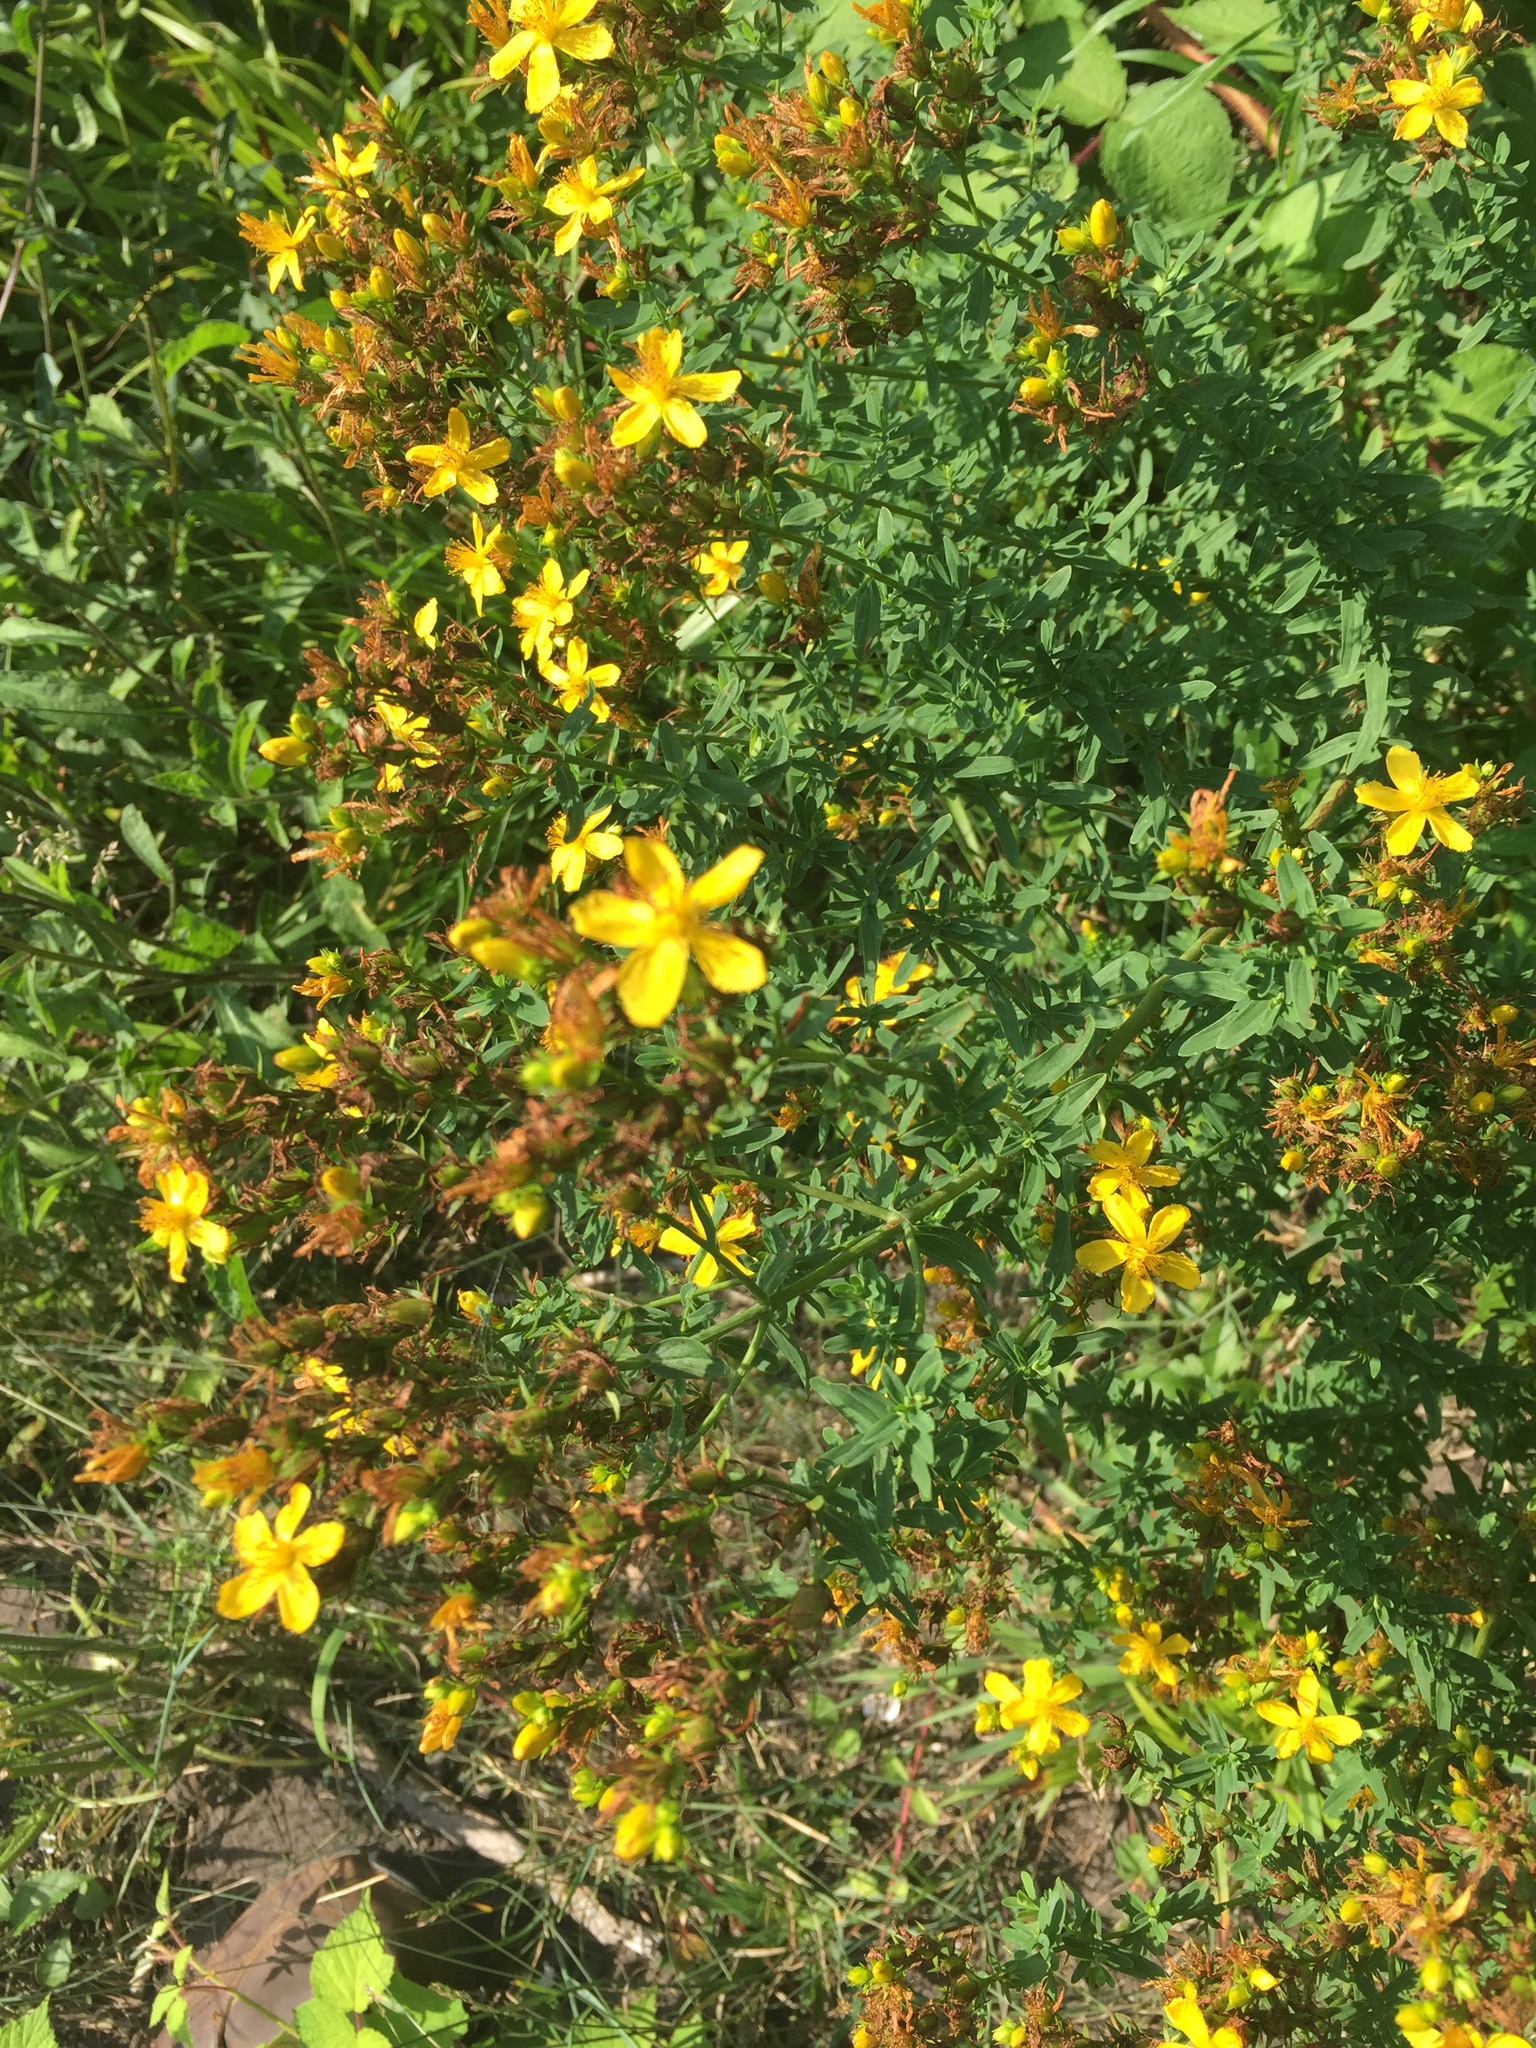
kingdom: Plantae
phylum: Tracheophyta
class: Magnoliopsida
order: Malpighiales
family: Hypericaceae
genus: Hypericum
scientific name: Hypericum perforatum
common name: Common st. johnswort
